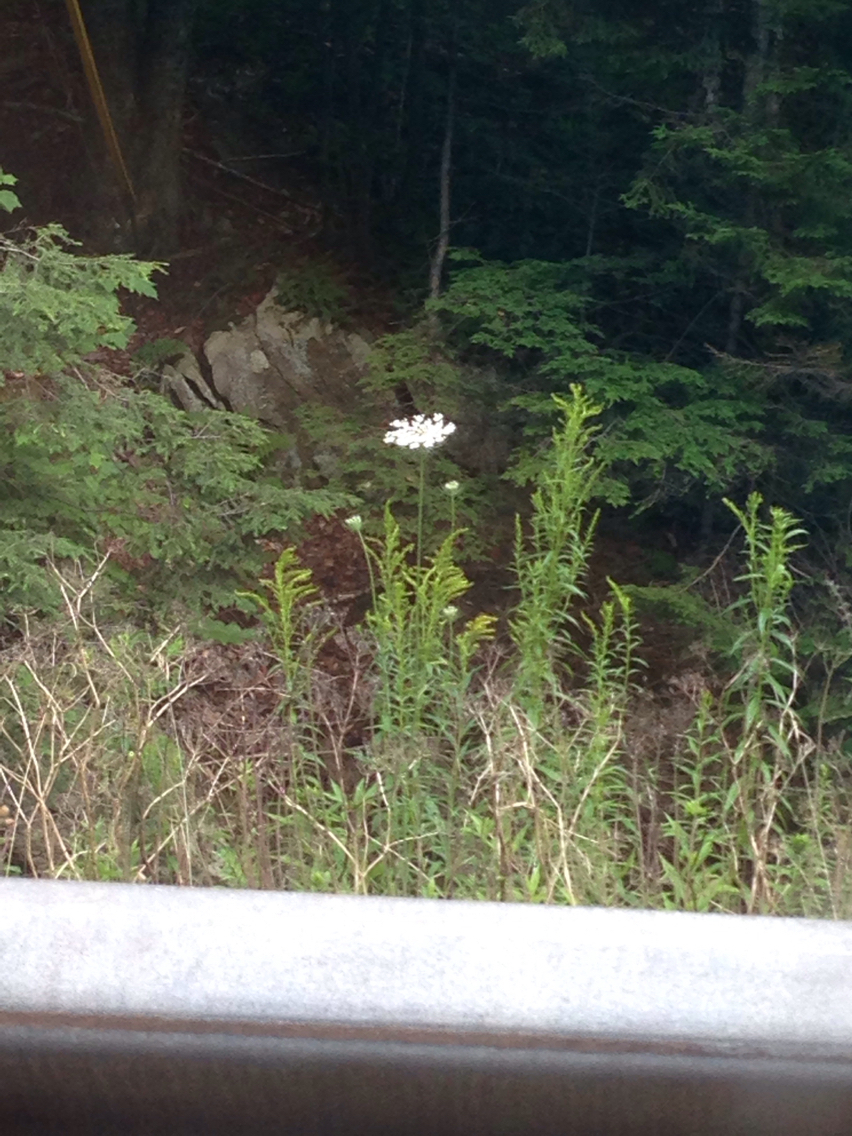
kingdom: Plantae
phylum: Tracheophyta
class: Magnoliopsida
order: Apiales
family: Apiaceae
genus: Daucus
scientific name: Daucus carota
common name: Wild carrot
